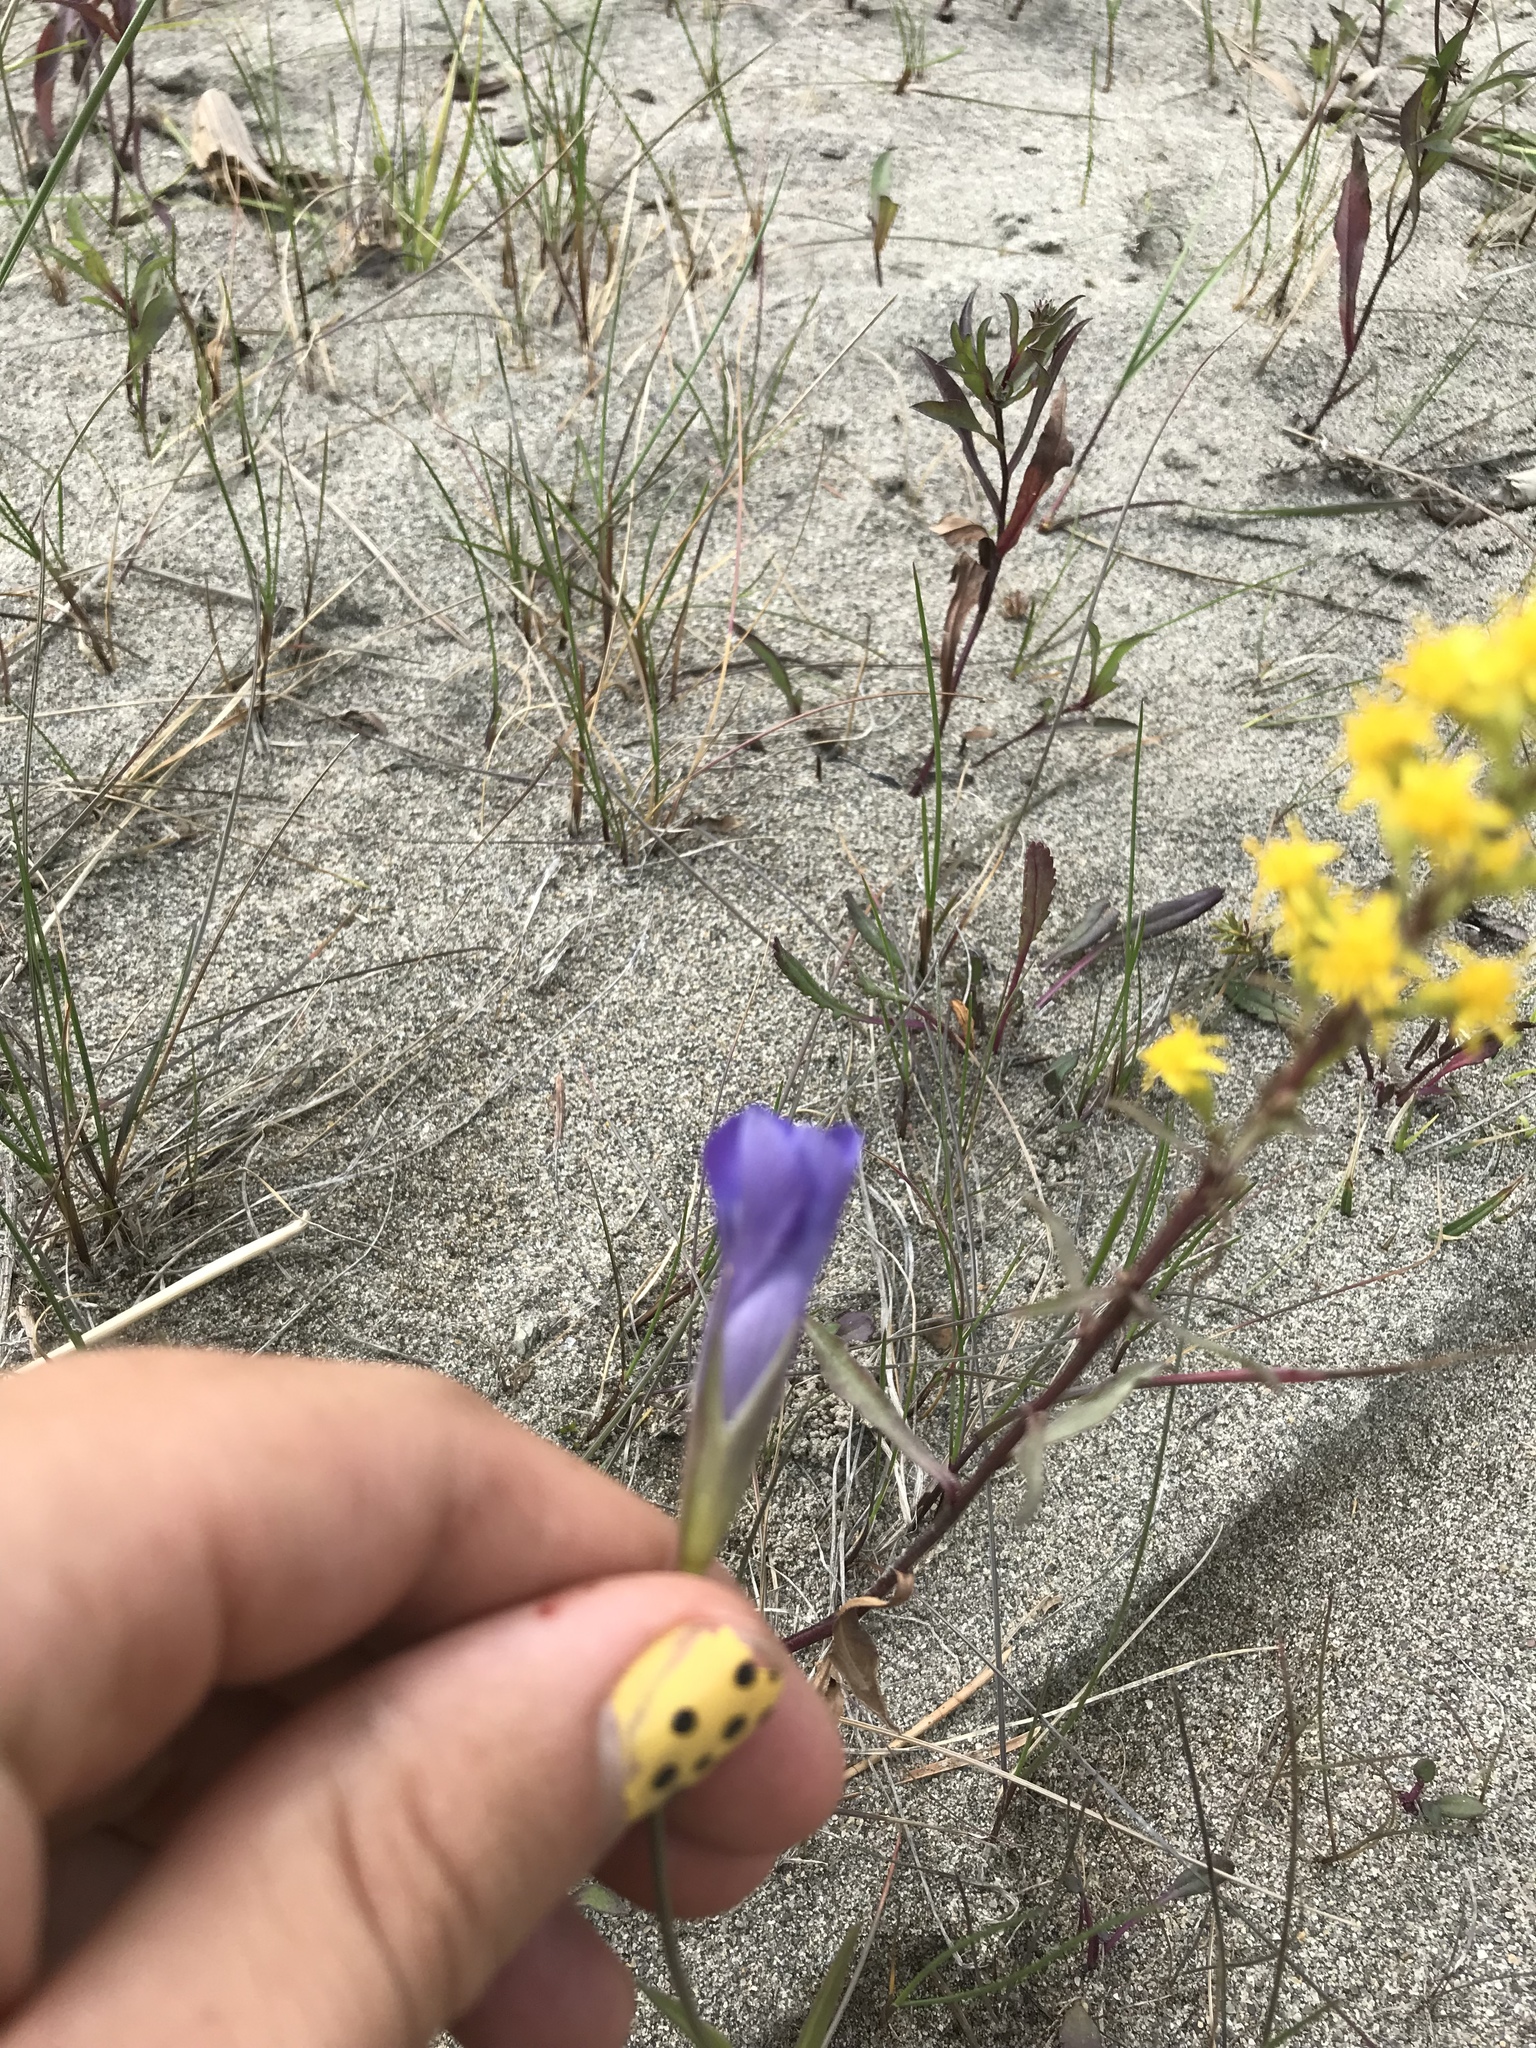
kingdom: Plantae
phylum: Tracheophyta
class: Magnoliopsida
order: Gentianales
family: Gentianaceae
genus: Gentianopsis
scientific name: Gentianopsis virgata
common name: Lesser fringed-gentian
